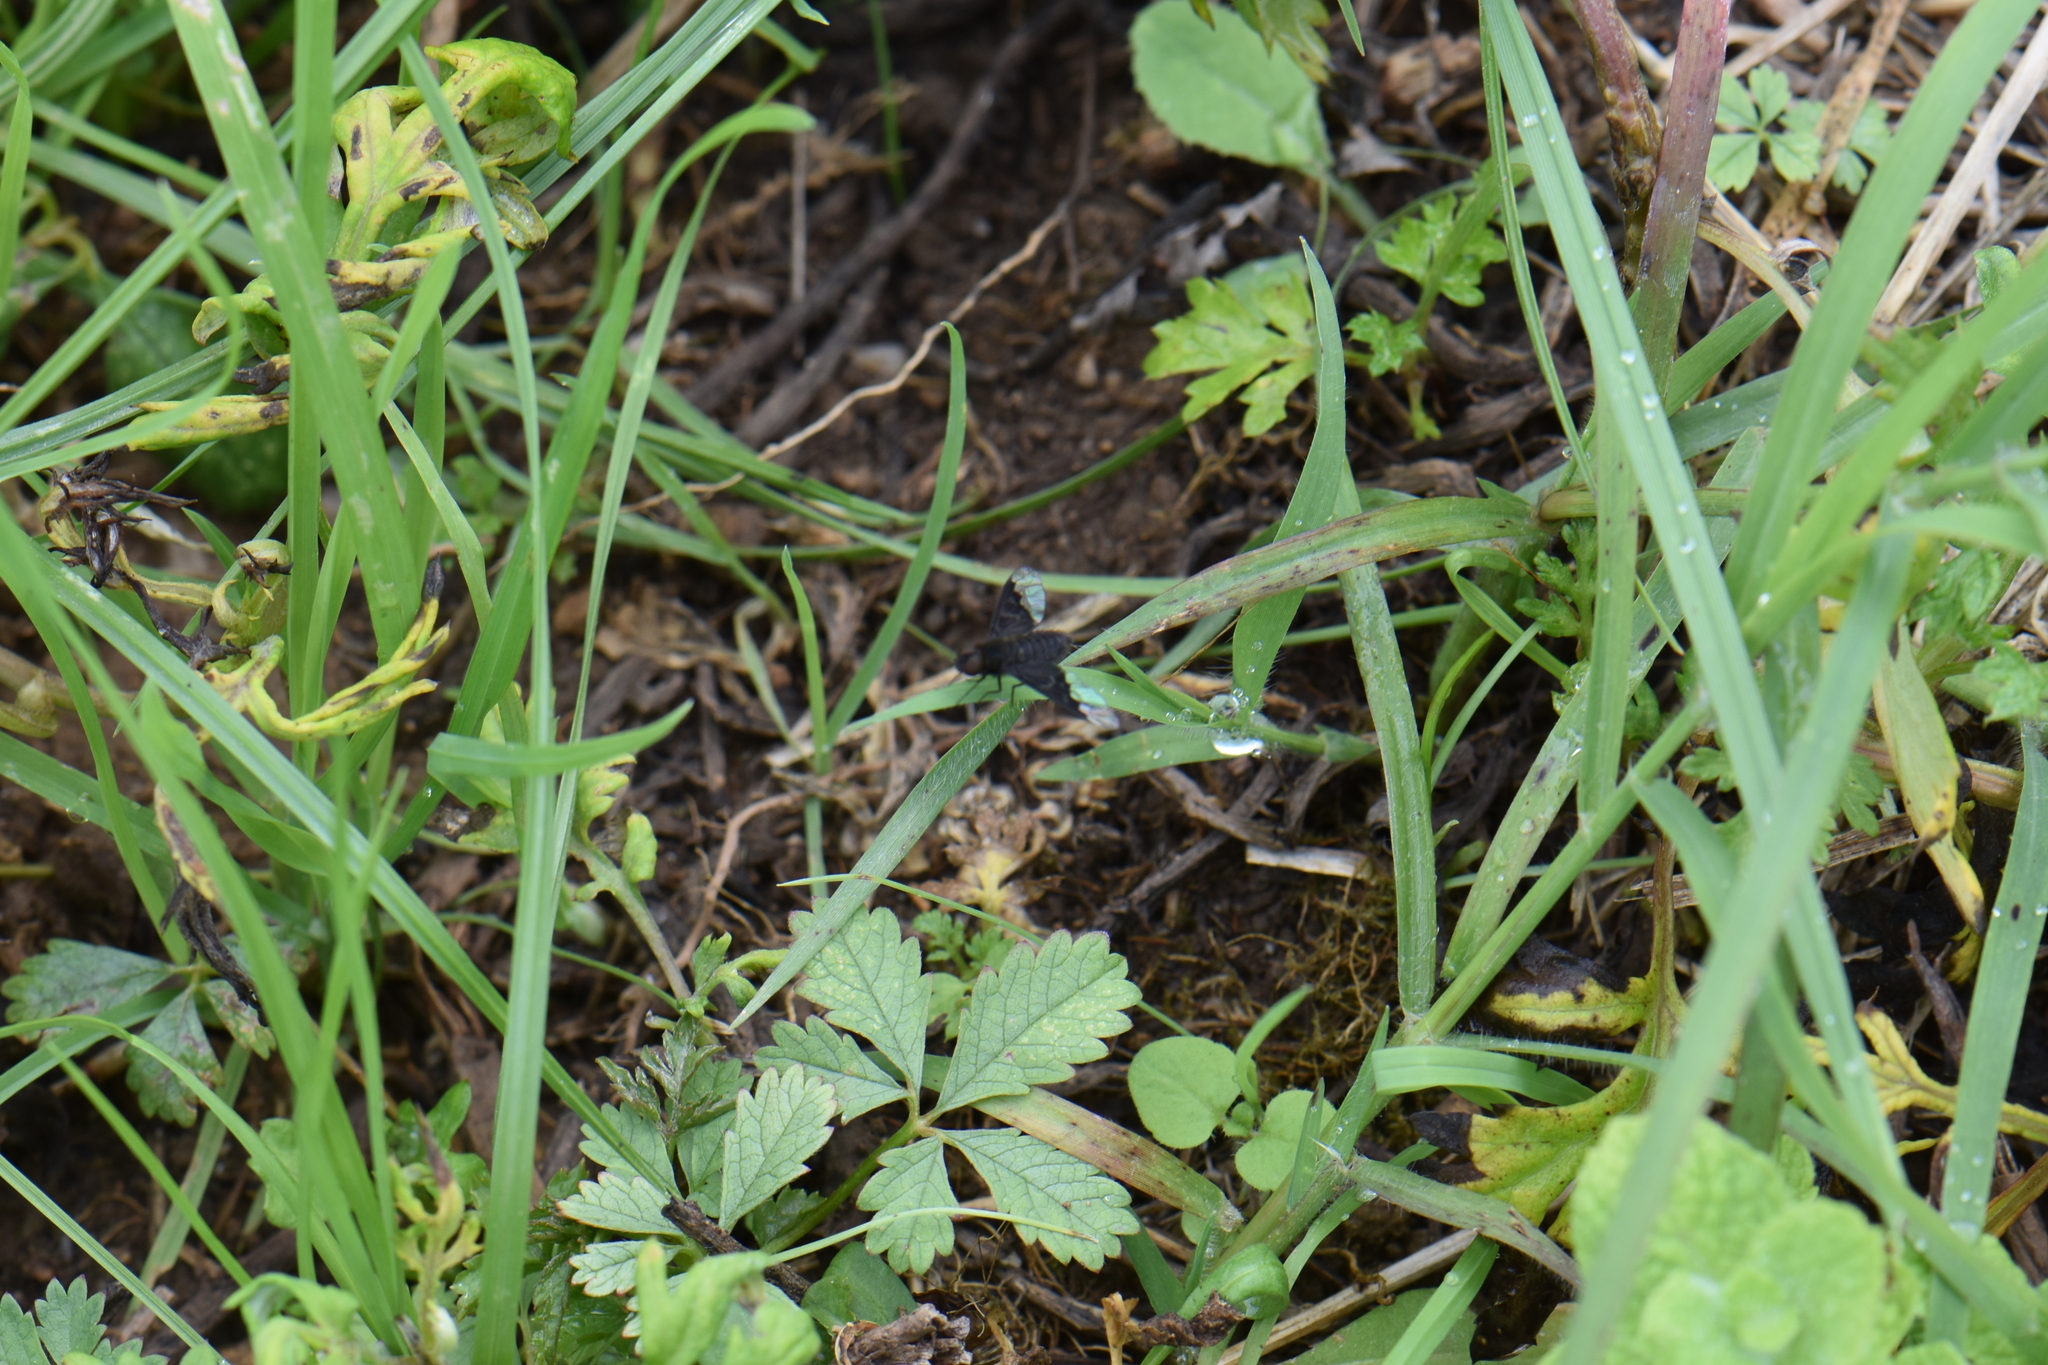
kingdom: Animalia
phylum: Arthropoda
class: Insecta
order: Diptera
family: Bombyliidae
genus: Hemipenthes
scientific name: Hemipenthes morio
